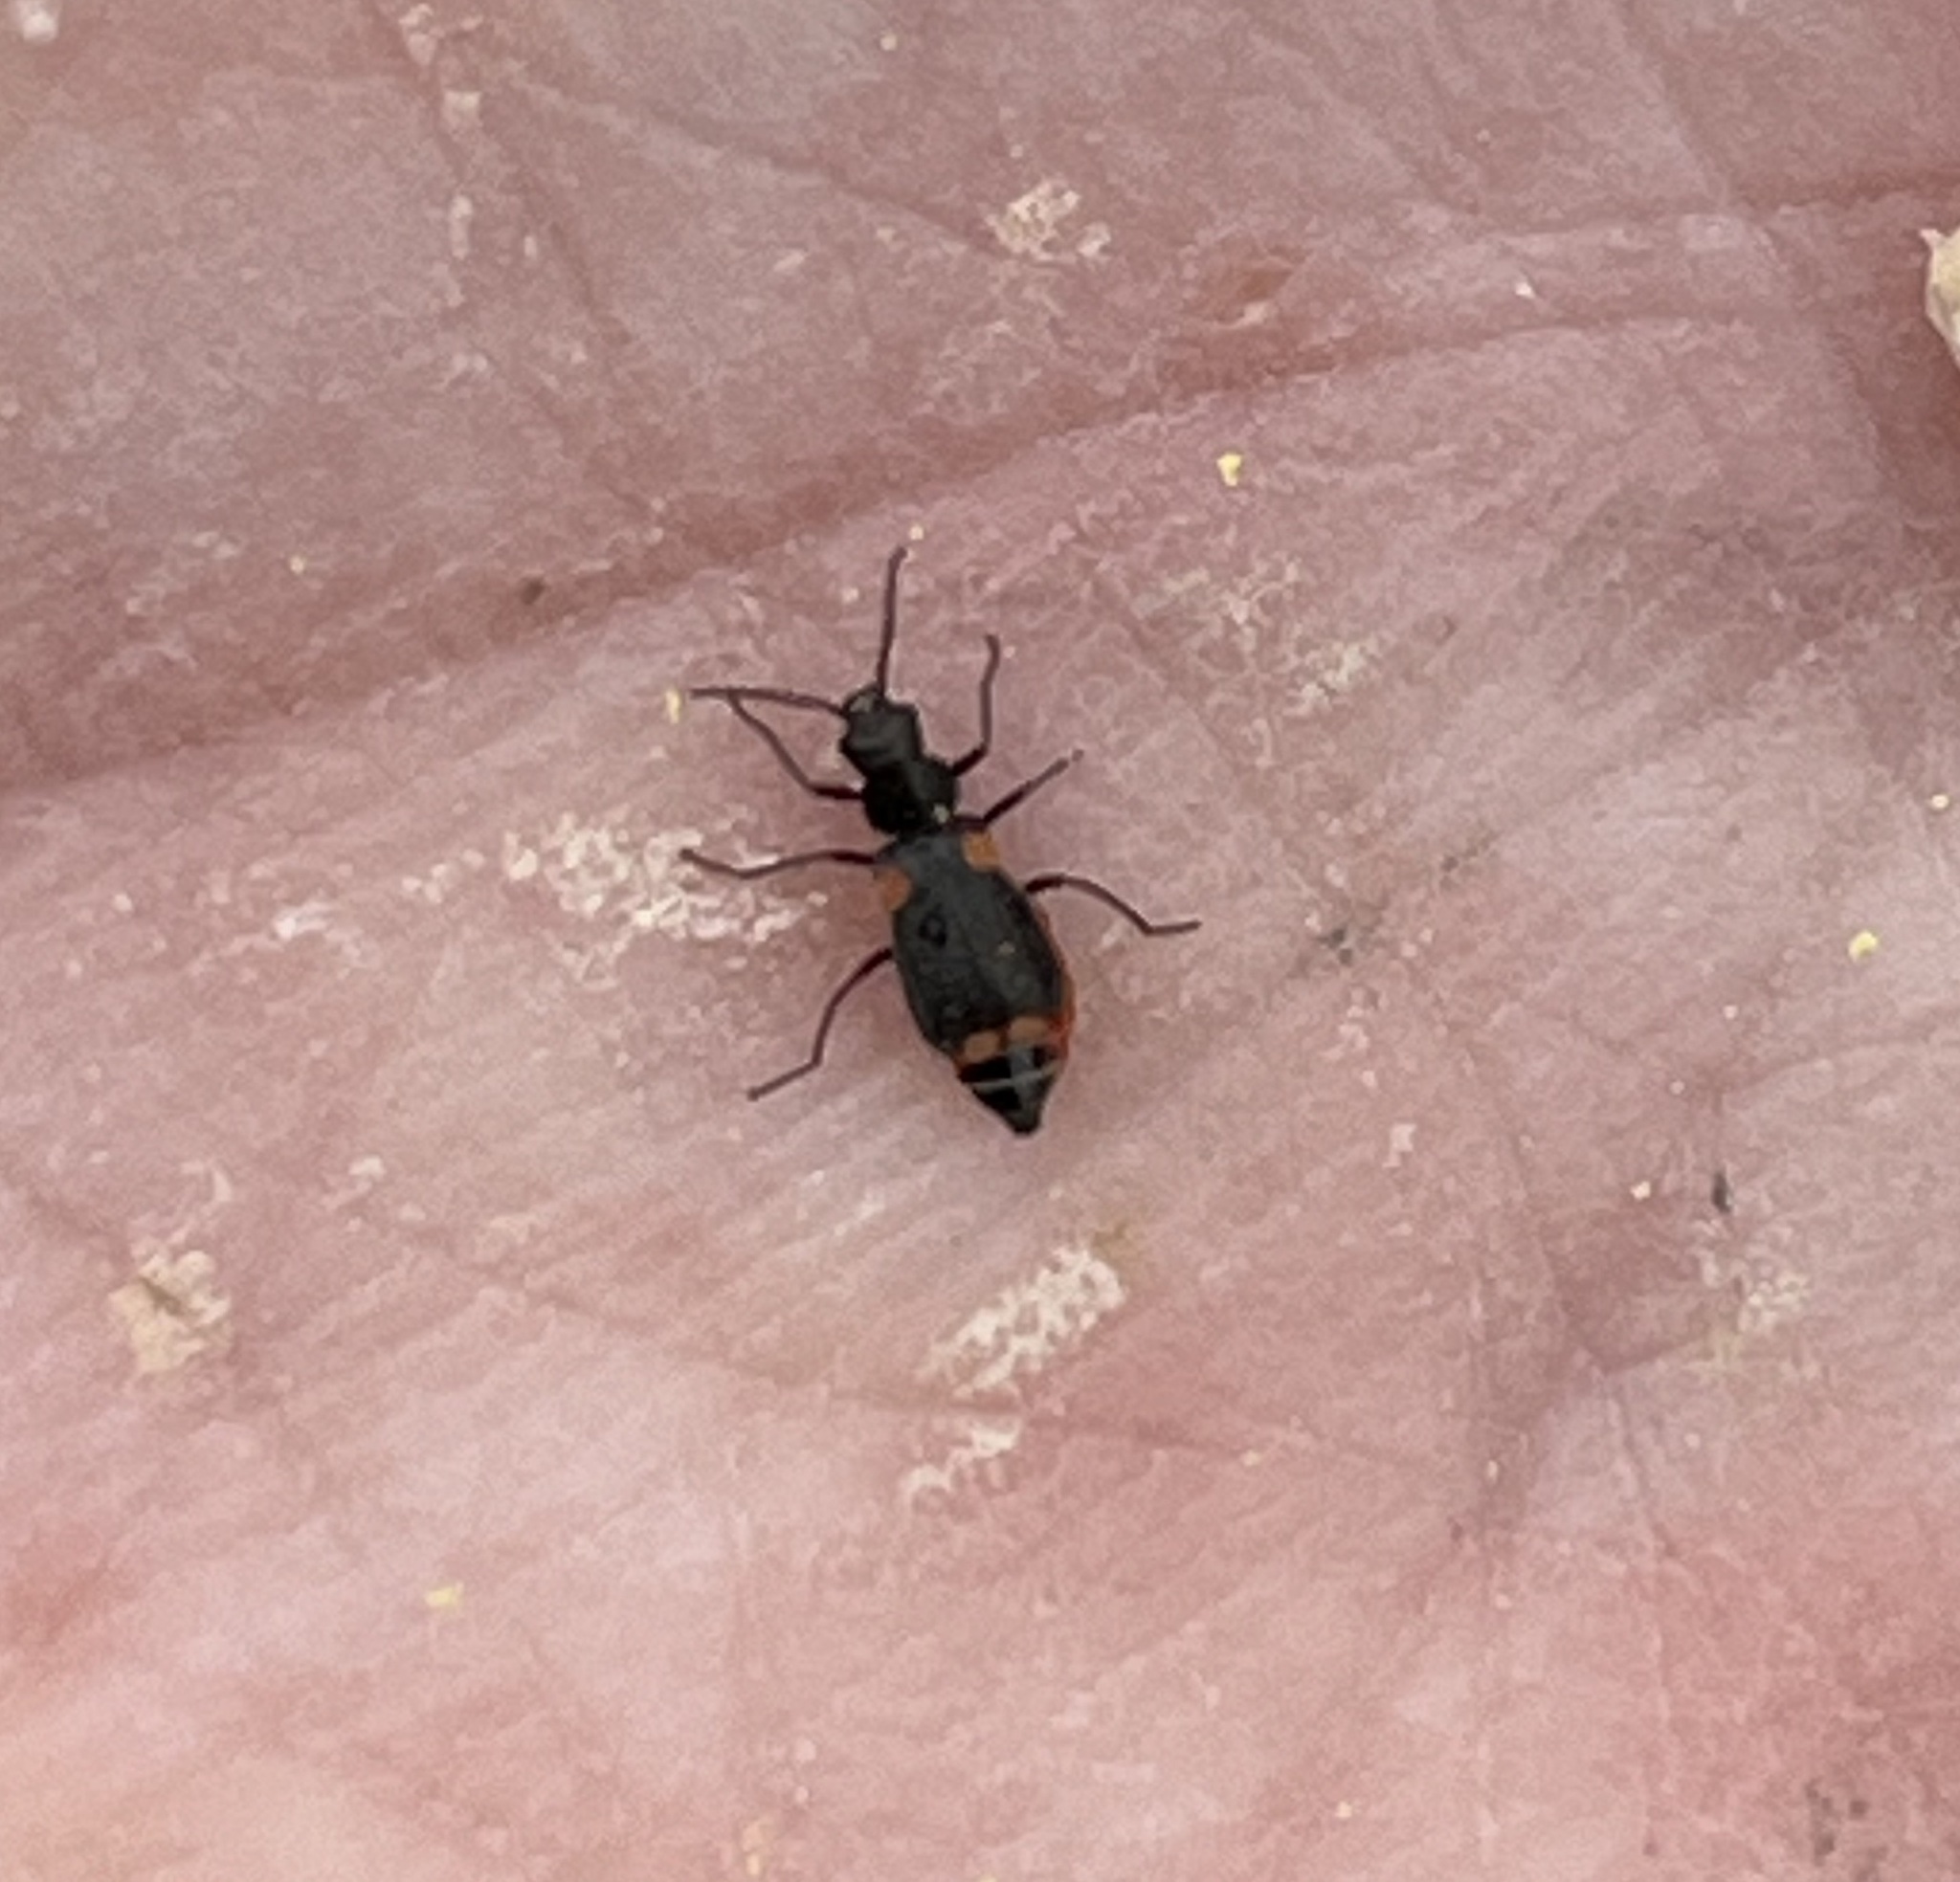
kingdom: Animalia
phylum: Arthropoda
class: Insecta
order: Coleoptera
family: Malachiidae
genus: Clanoptilus
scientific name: Clanoptilus
